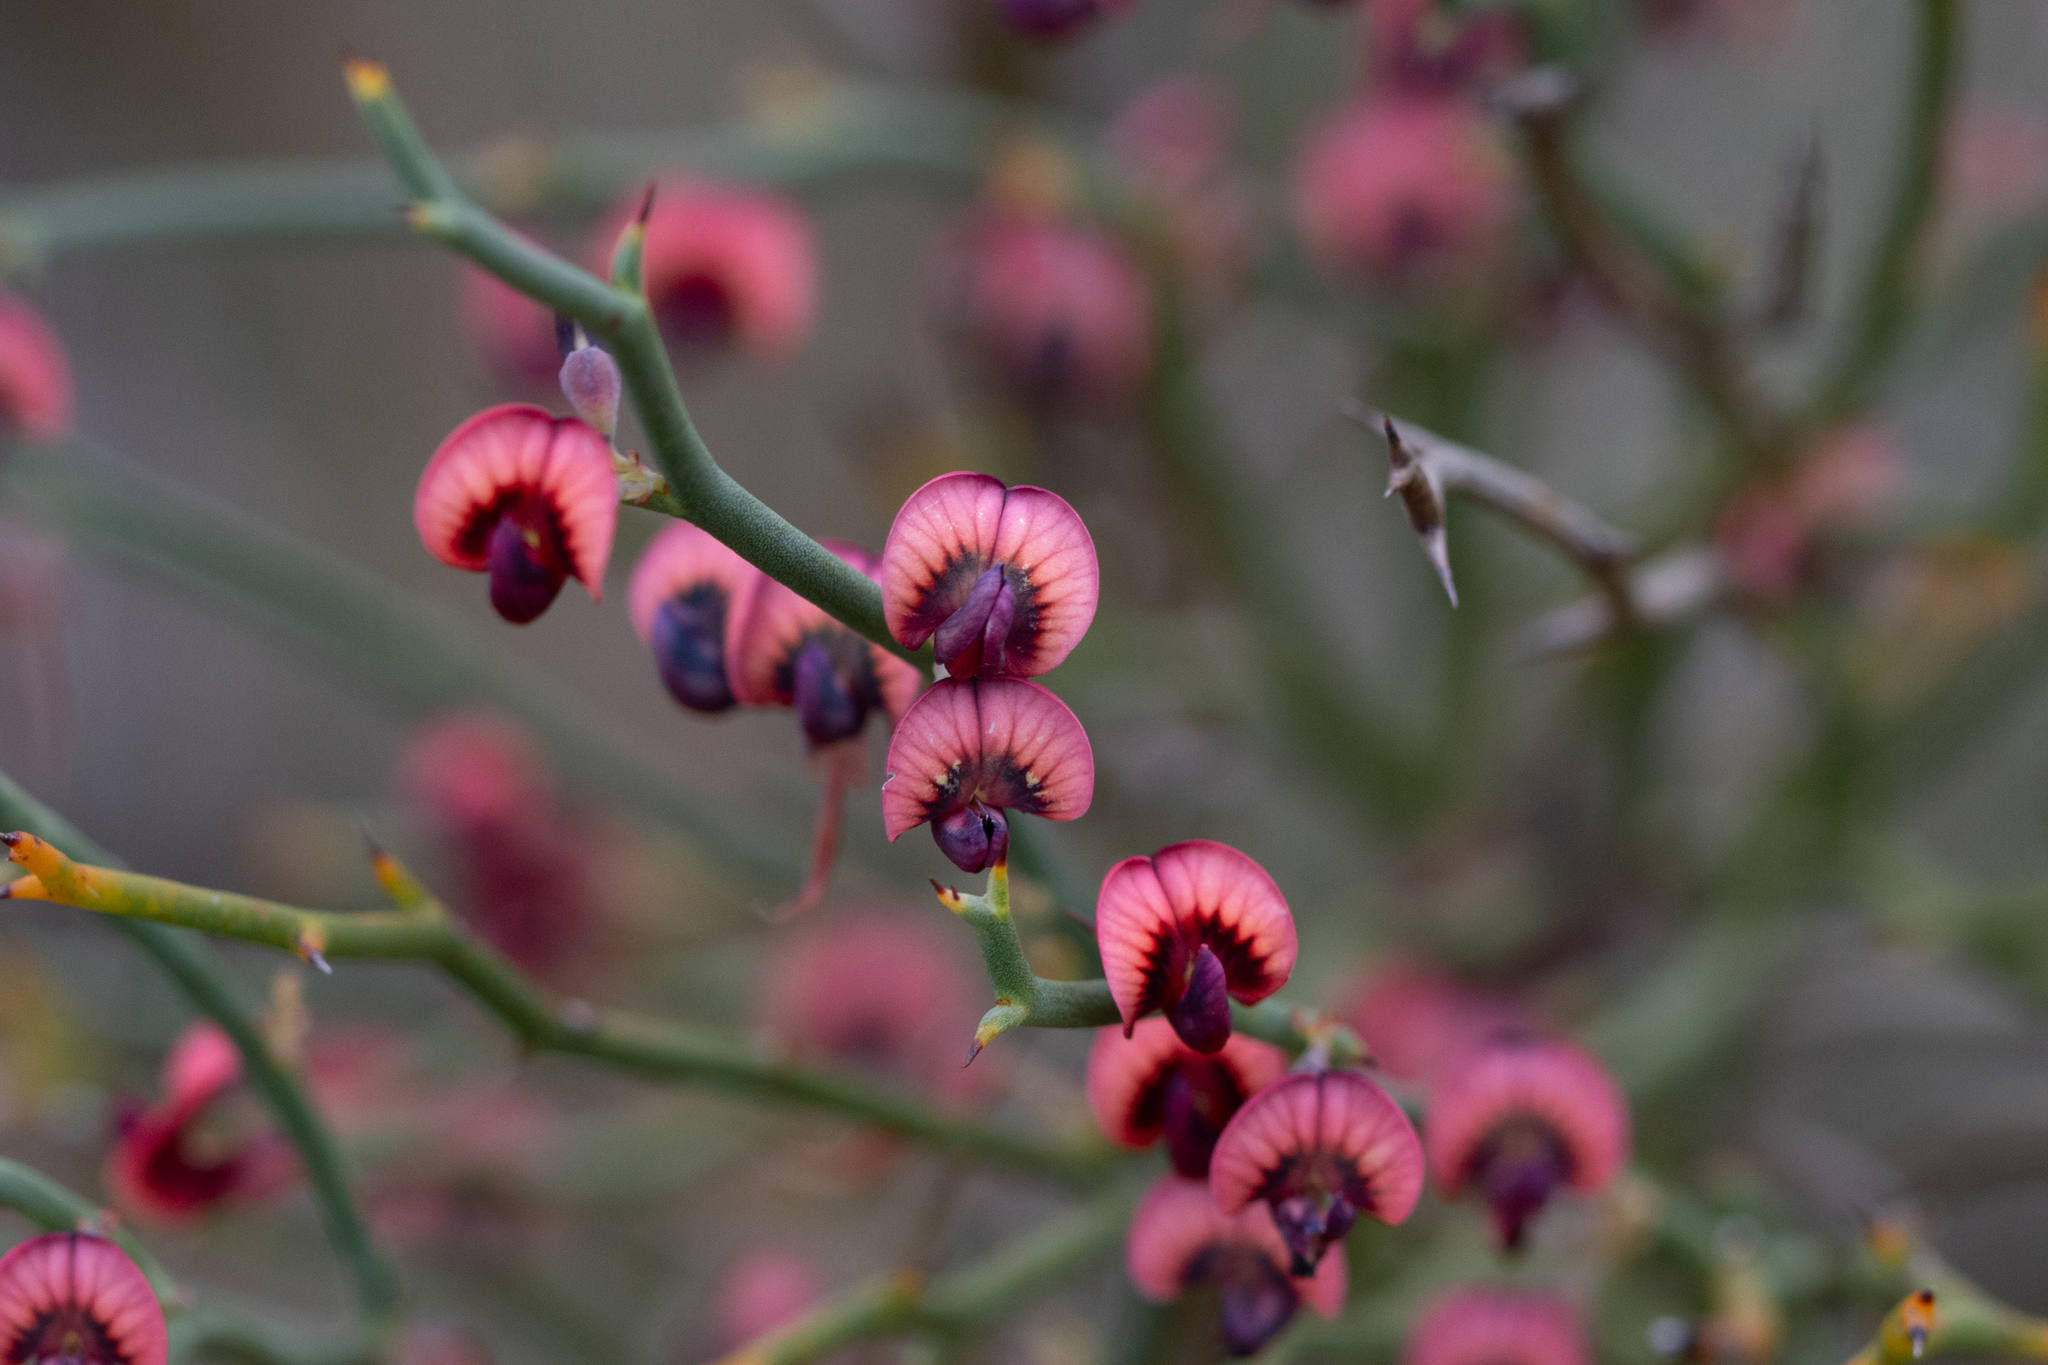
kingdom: Plantae
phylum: Tracheophyta
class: Magnoliopsida
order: Fabales
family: Fabaceae
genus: Daviesia
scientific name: Daviesia brevifolia
